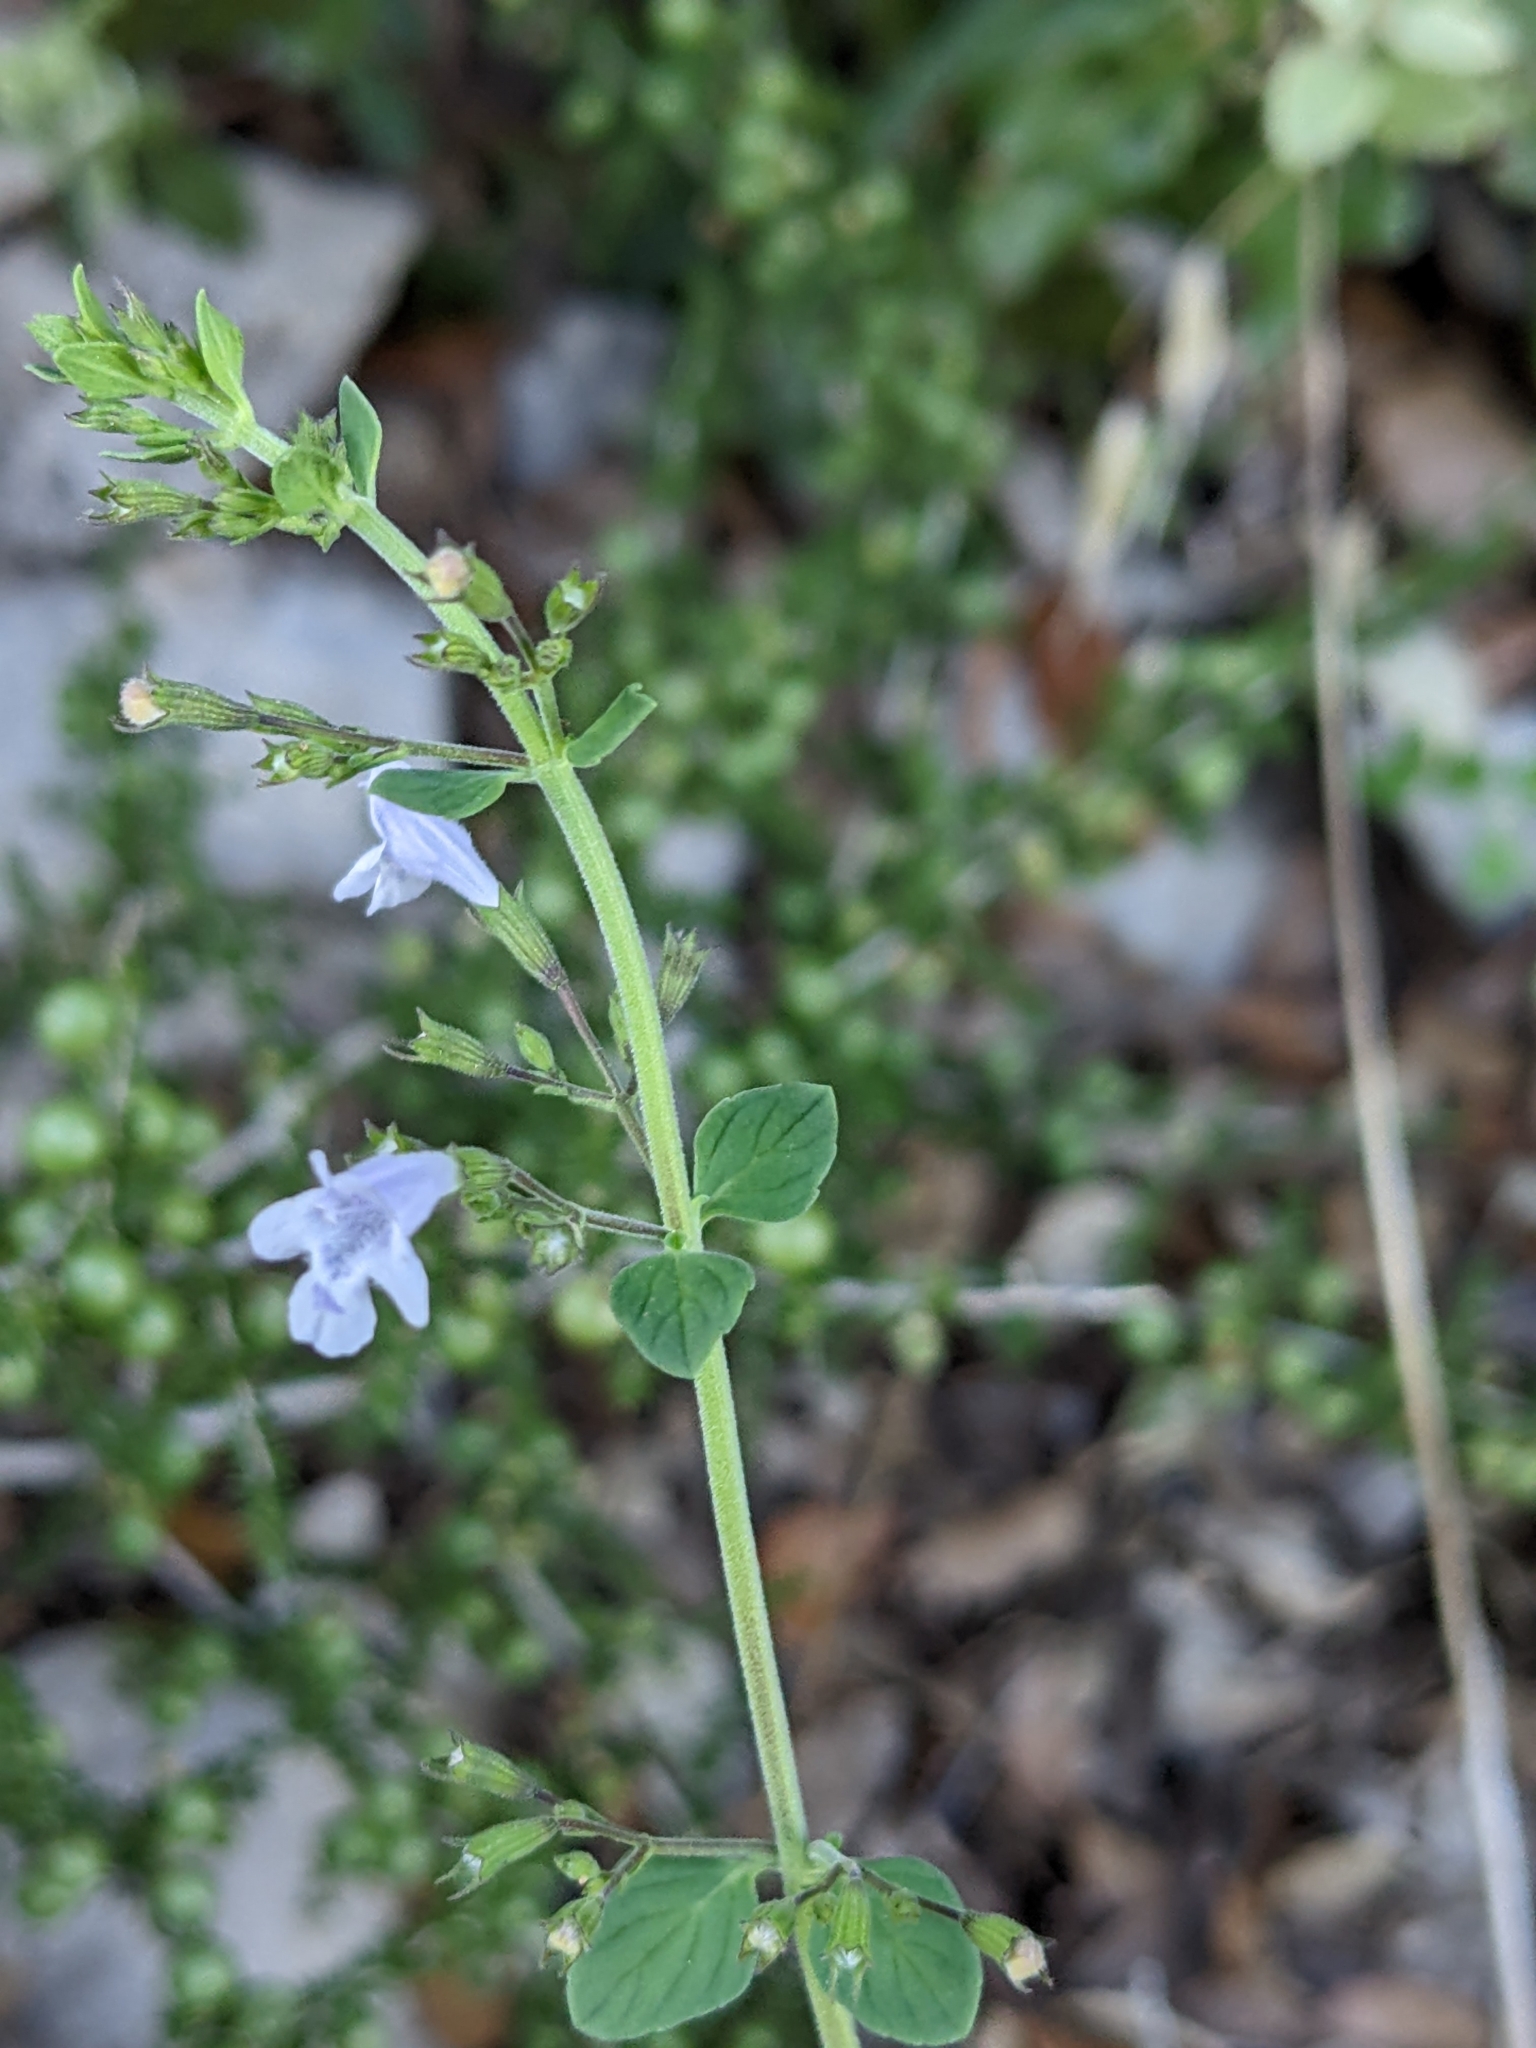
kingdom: Plantae
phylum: Tracheophyta
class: Magnoliopsida
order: Lamiales
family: Lamiaceae
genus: Clinopodium
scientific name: Clinopodium nepeta
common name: Lesser calamint
